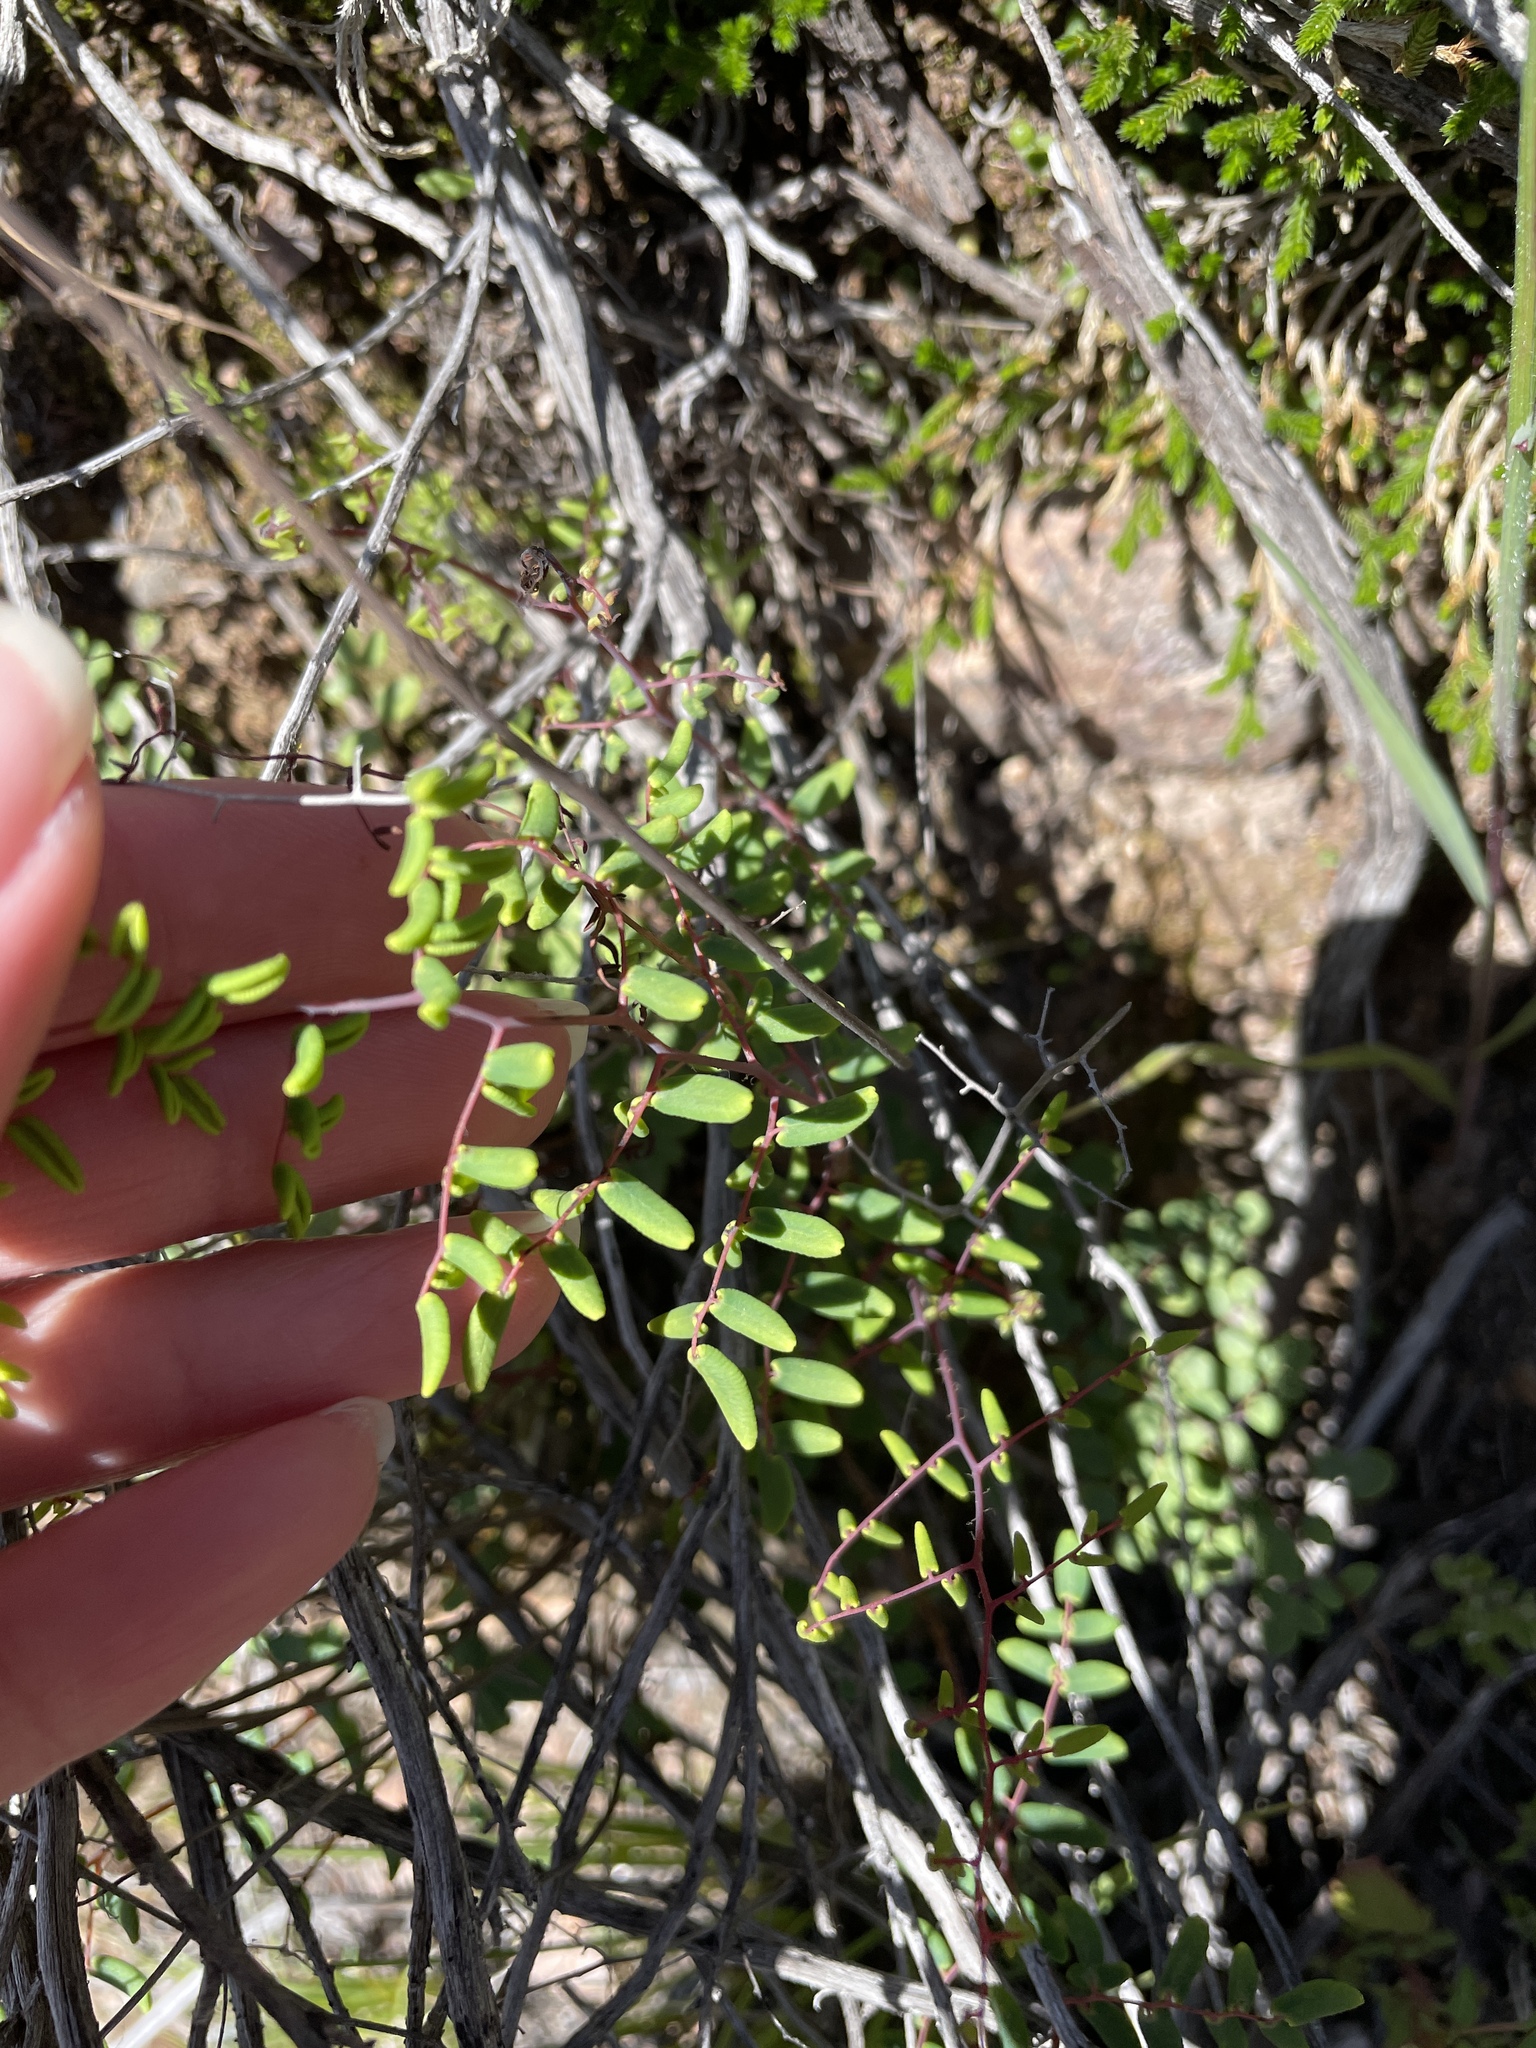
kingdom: Plantae
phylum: Tracheophyta
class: Polypodiopsida
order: Polypodiales
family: Pteridaceae
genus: Pellaea
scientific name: Pellaea andromedifolia
